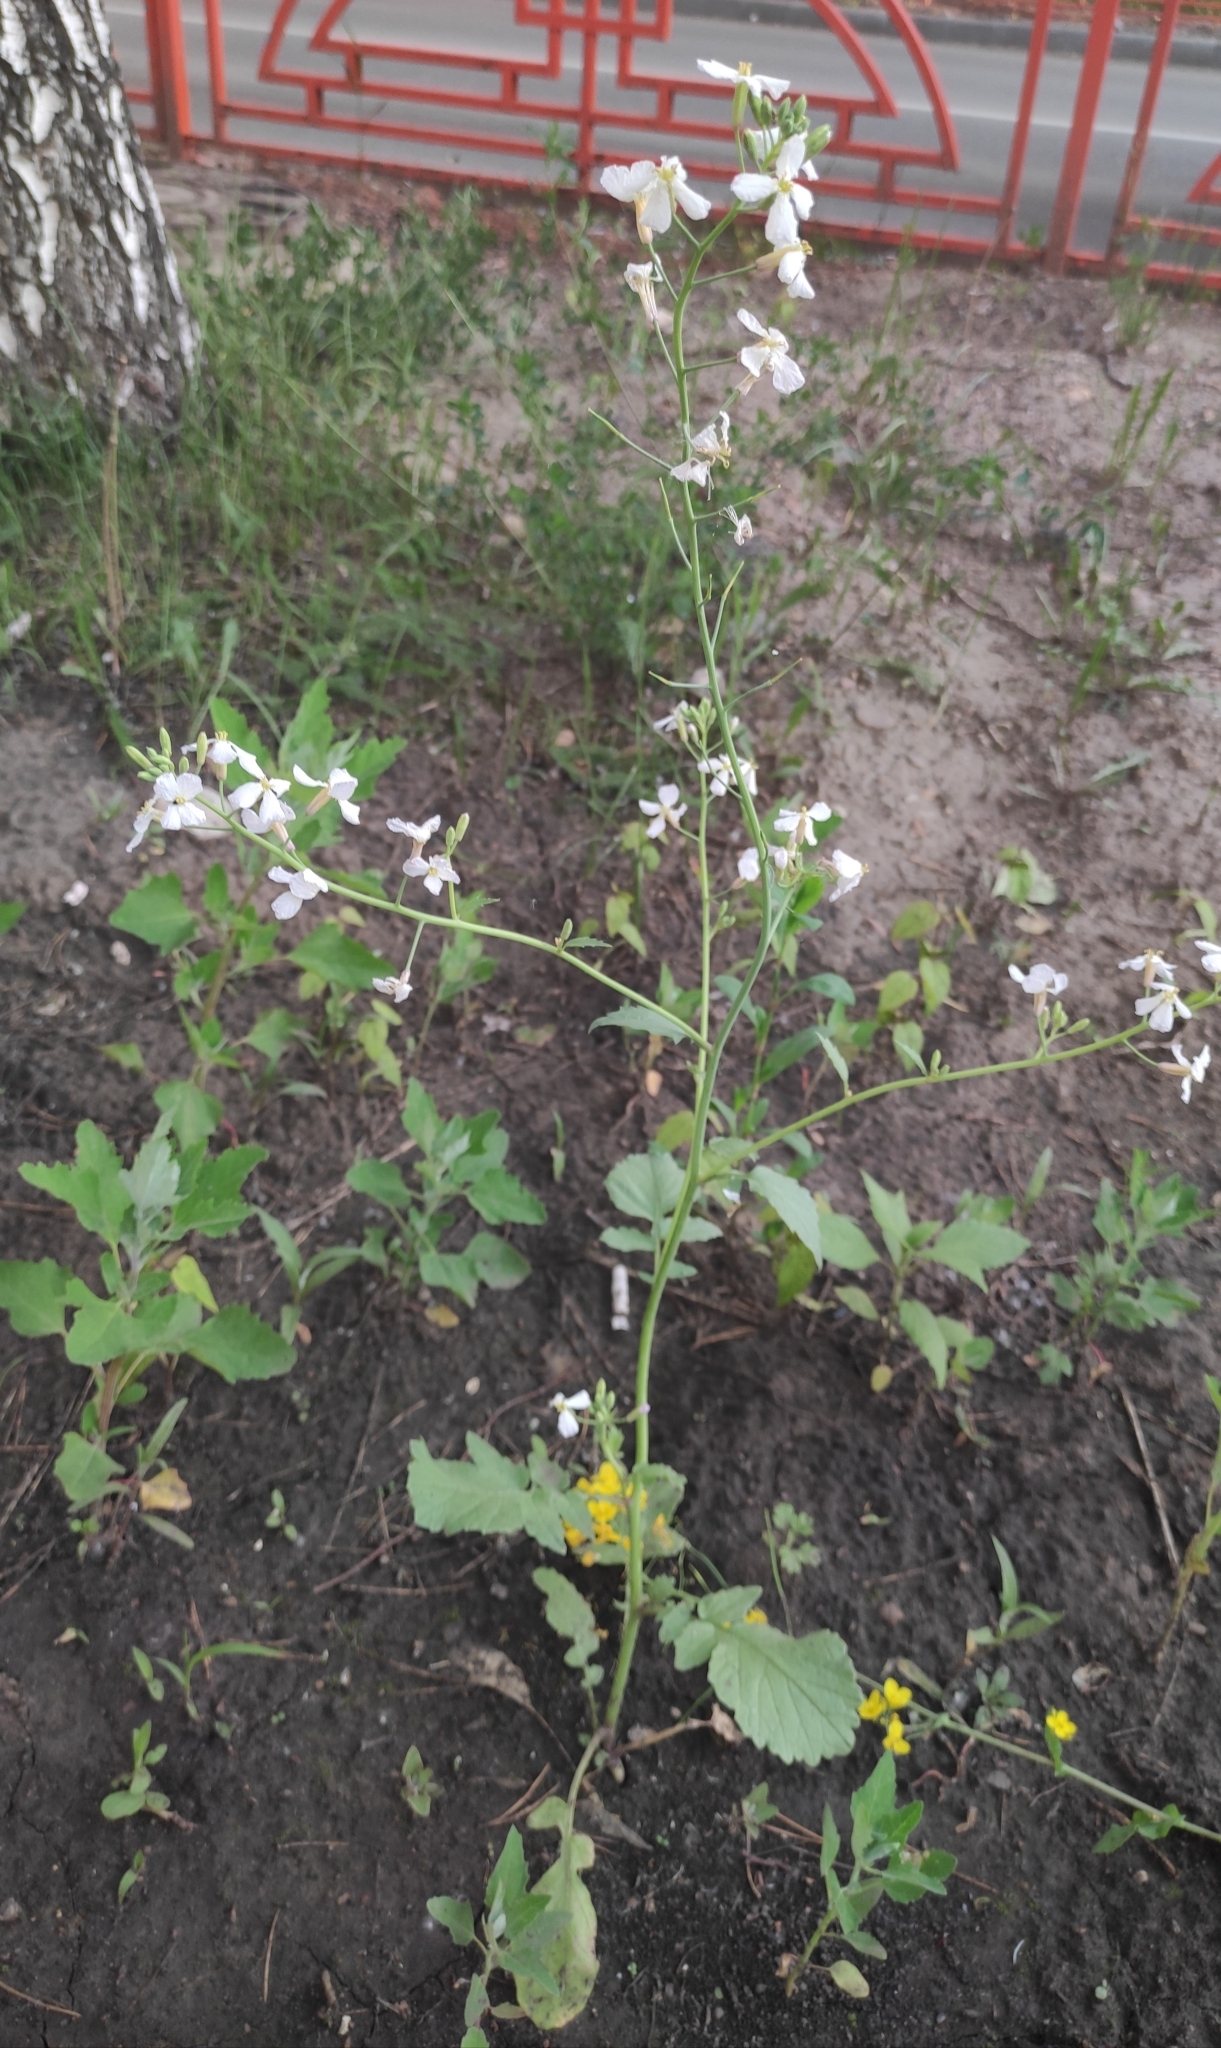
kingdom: Plantae
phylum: Tracheophyta
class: Magnoliopsida
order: Brassicales
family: Brassicaceae
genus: Raphanus
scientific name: Raphanus sativus
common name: Cultivated radish
